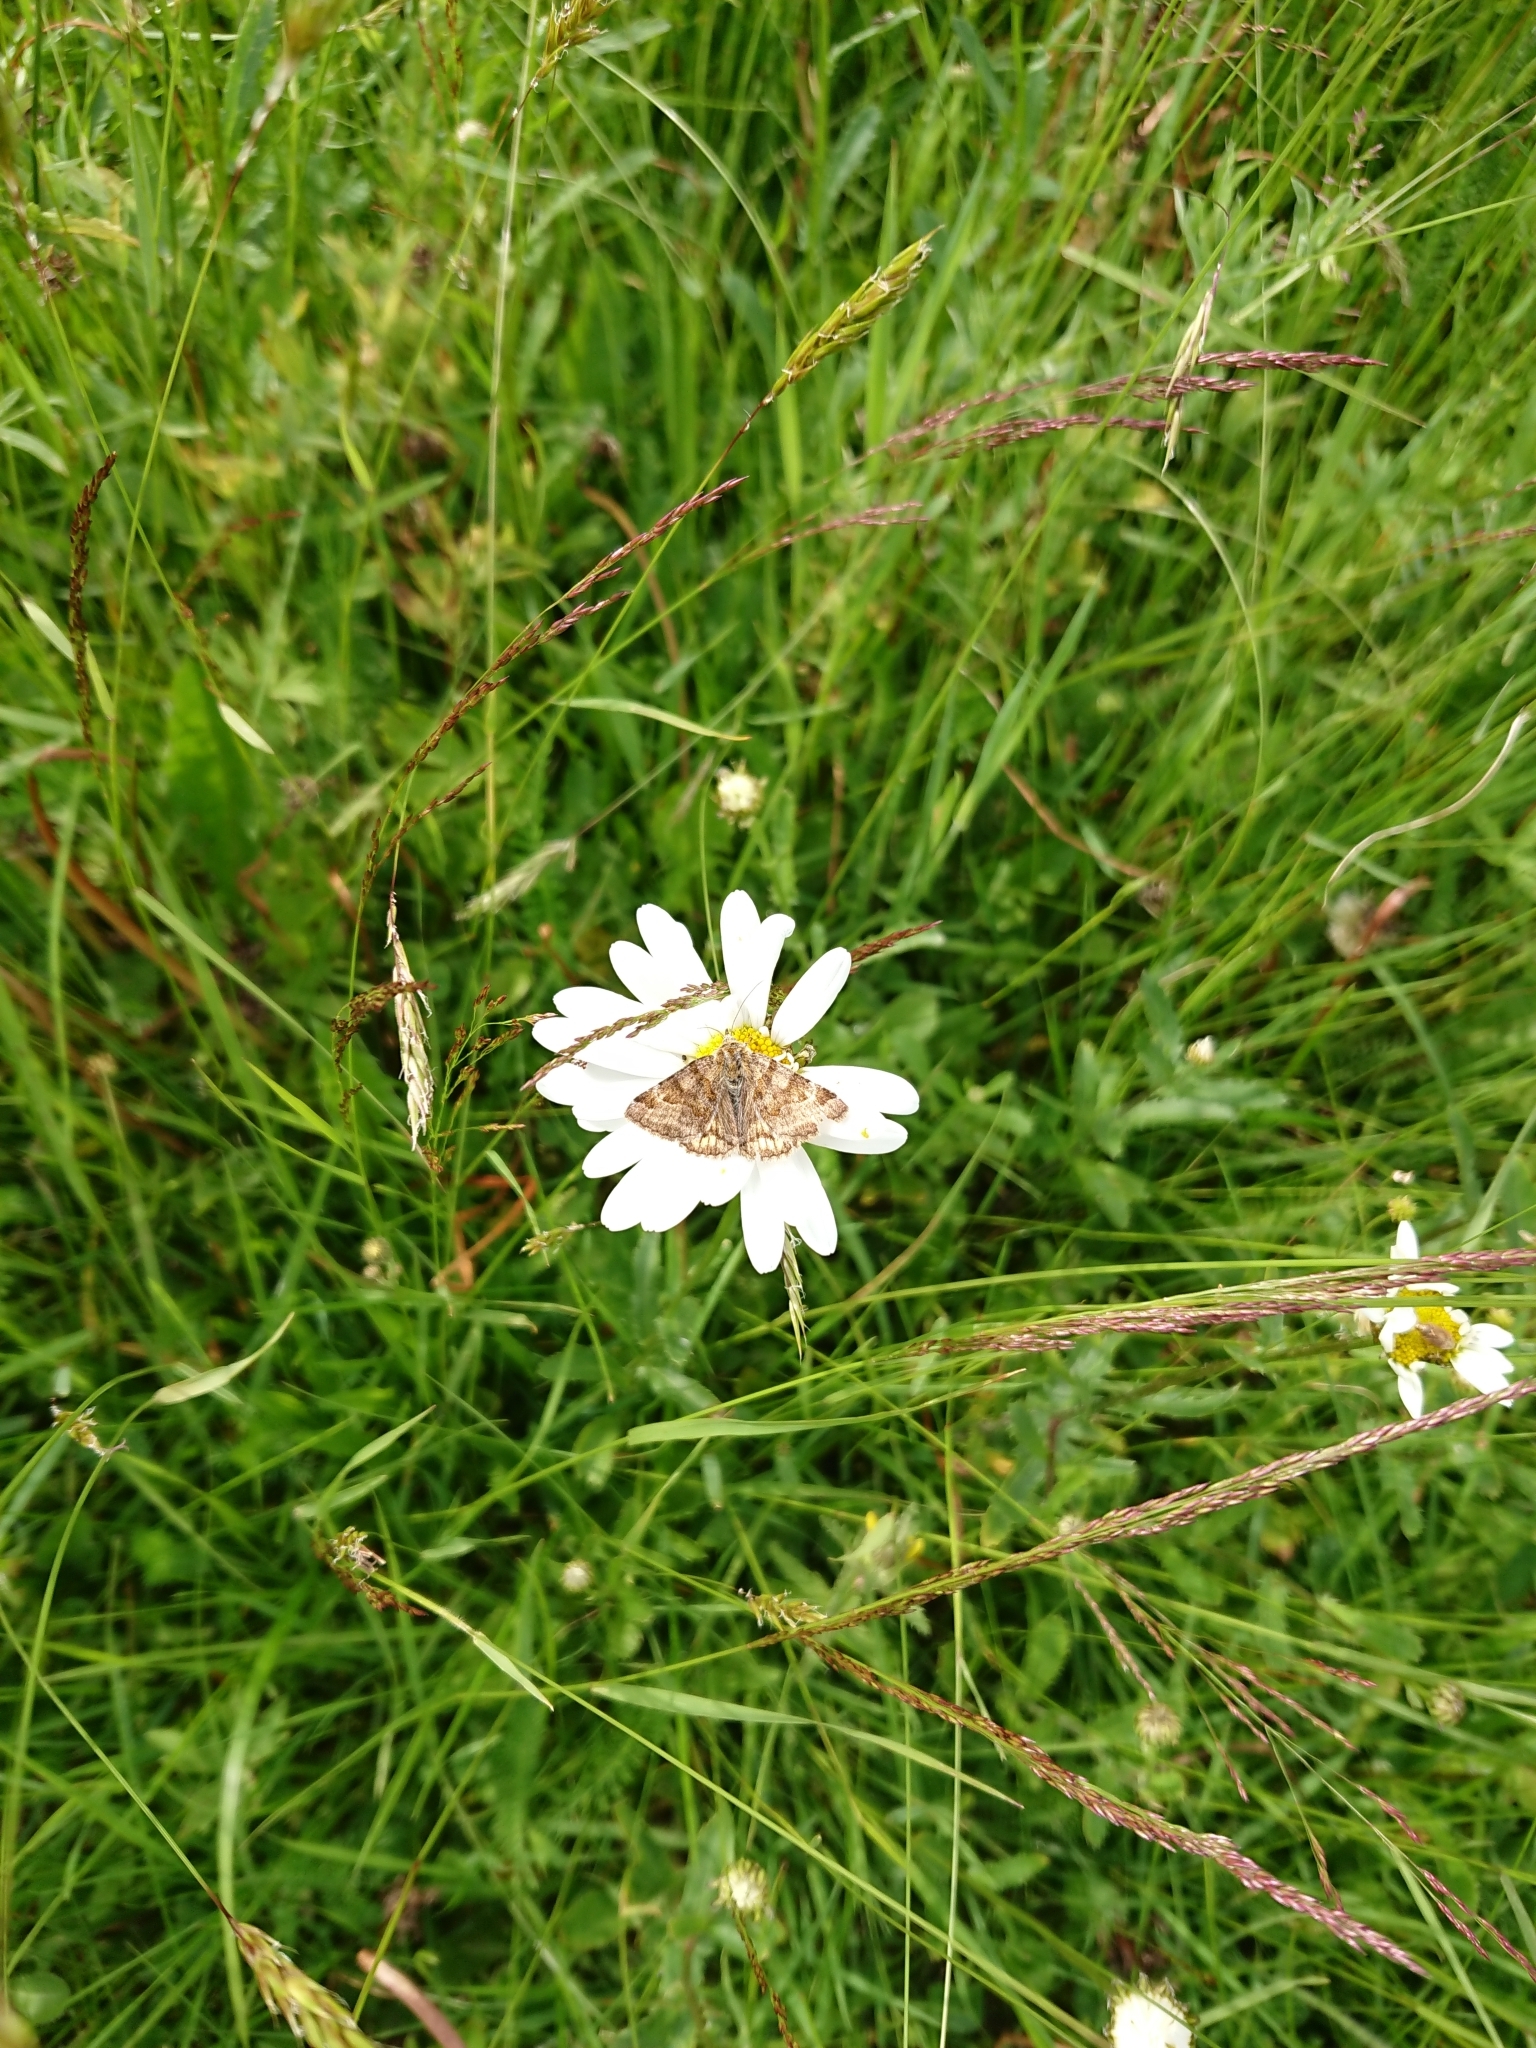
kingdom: Animalia
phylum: Arthropoda
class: Insecta
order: Lepidoptera
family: Erebidae
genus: Euclidia
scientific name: Euclidia glyphica
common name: Burnet companion
